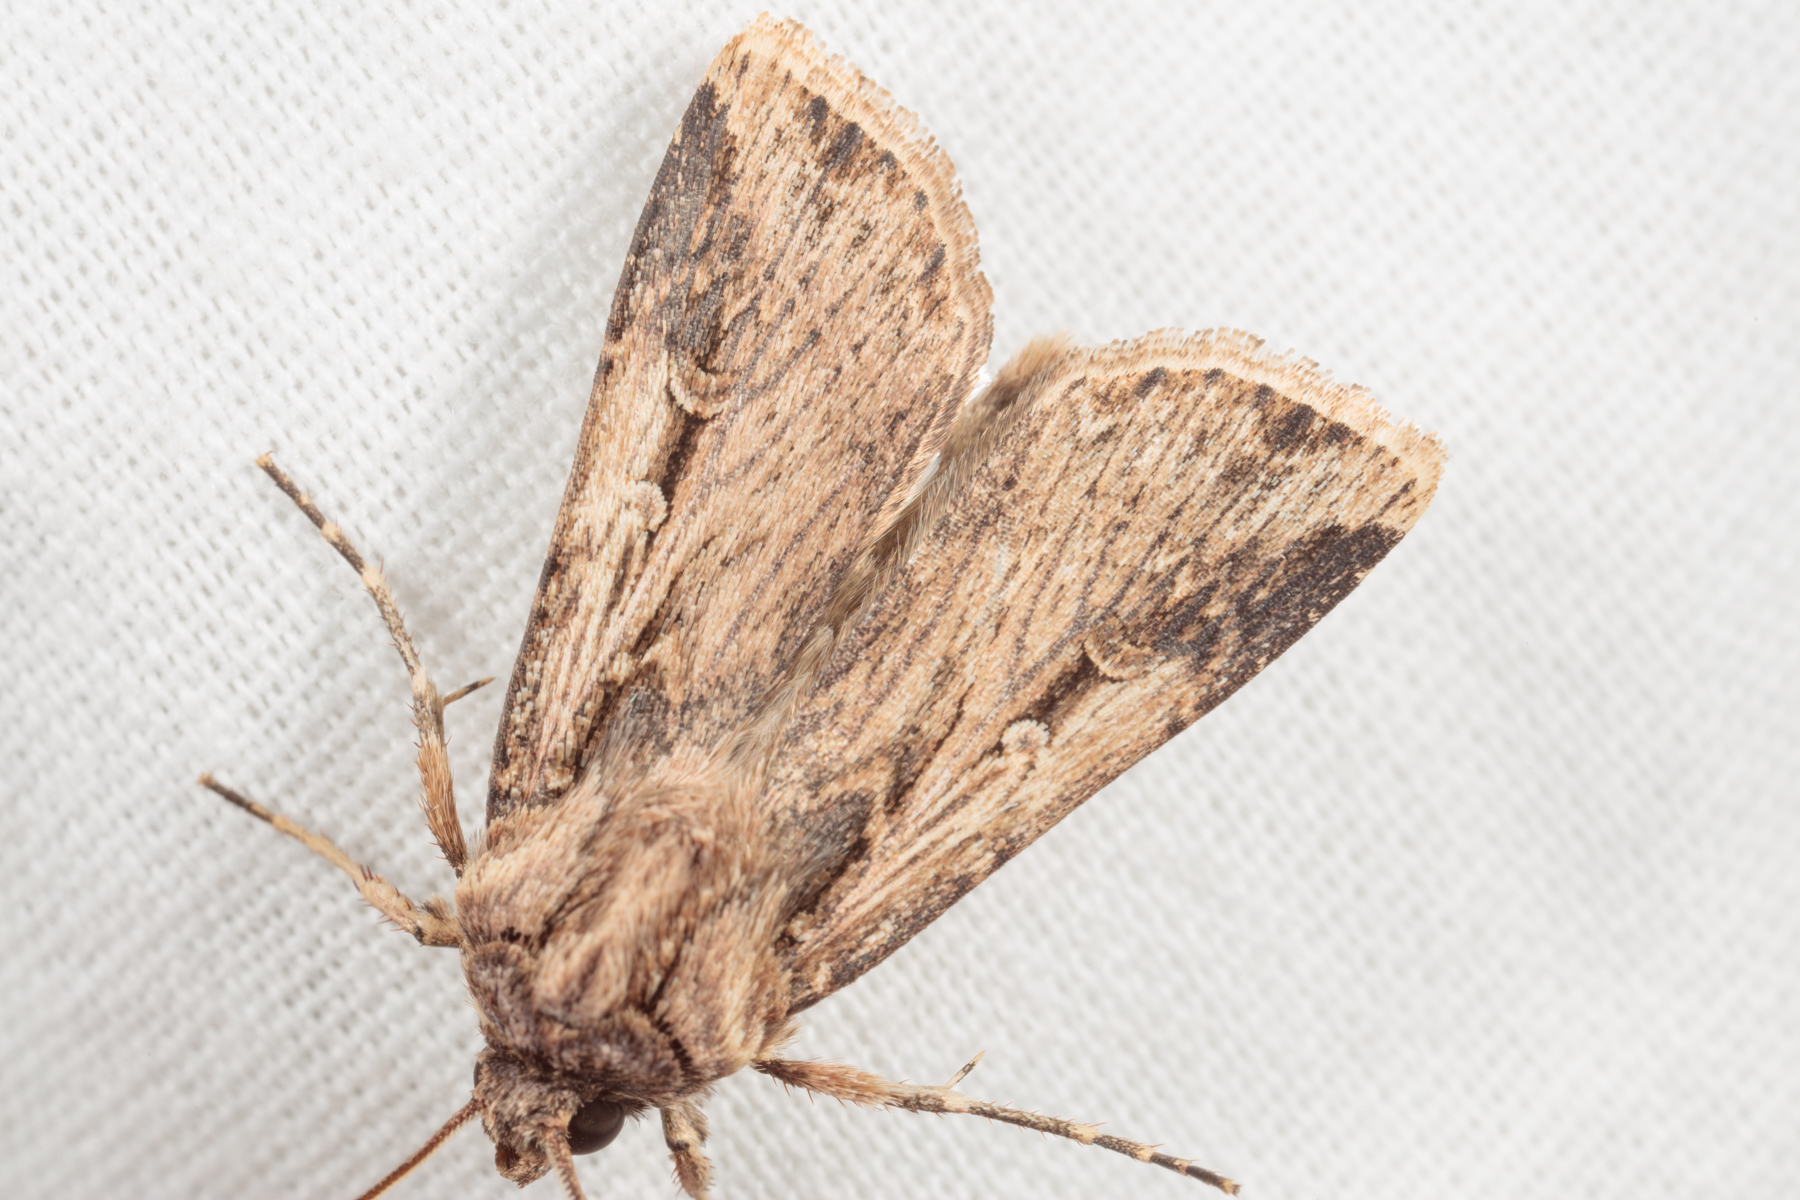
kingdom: Animalia
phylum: Arthropoda
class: Insecta
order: Lepidoptera
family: Noctuidae
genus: Feltia
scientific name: Feltia subterranea
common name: Granulate cutworm
